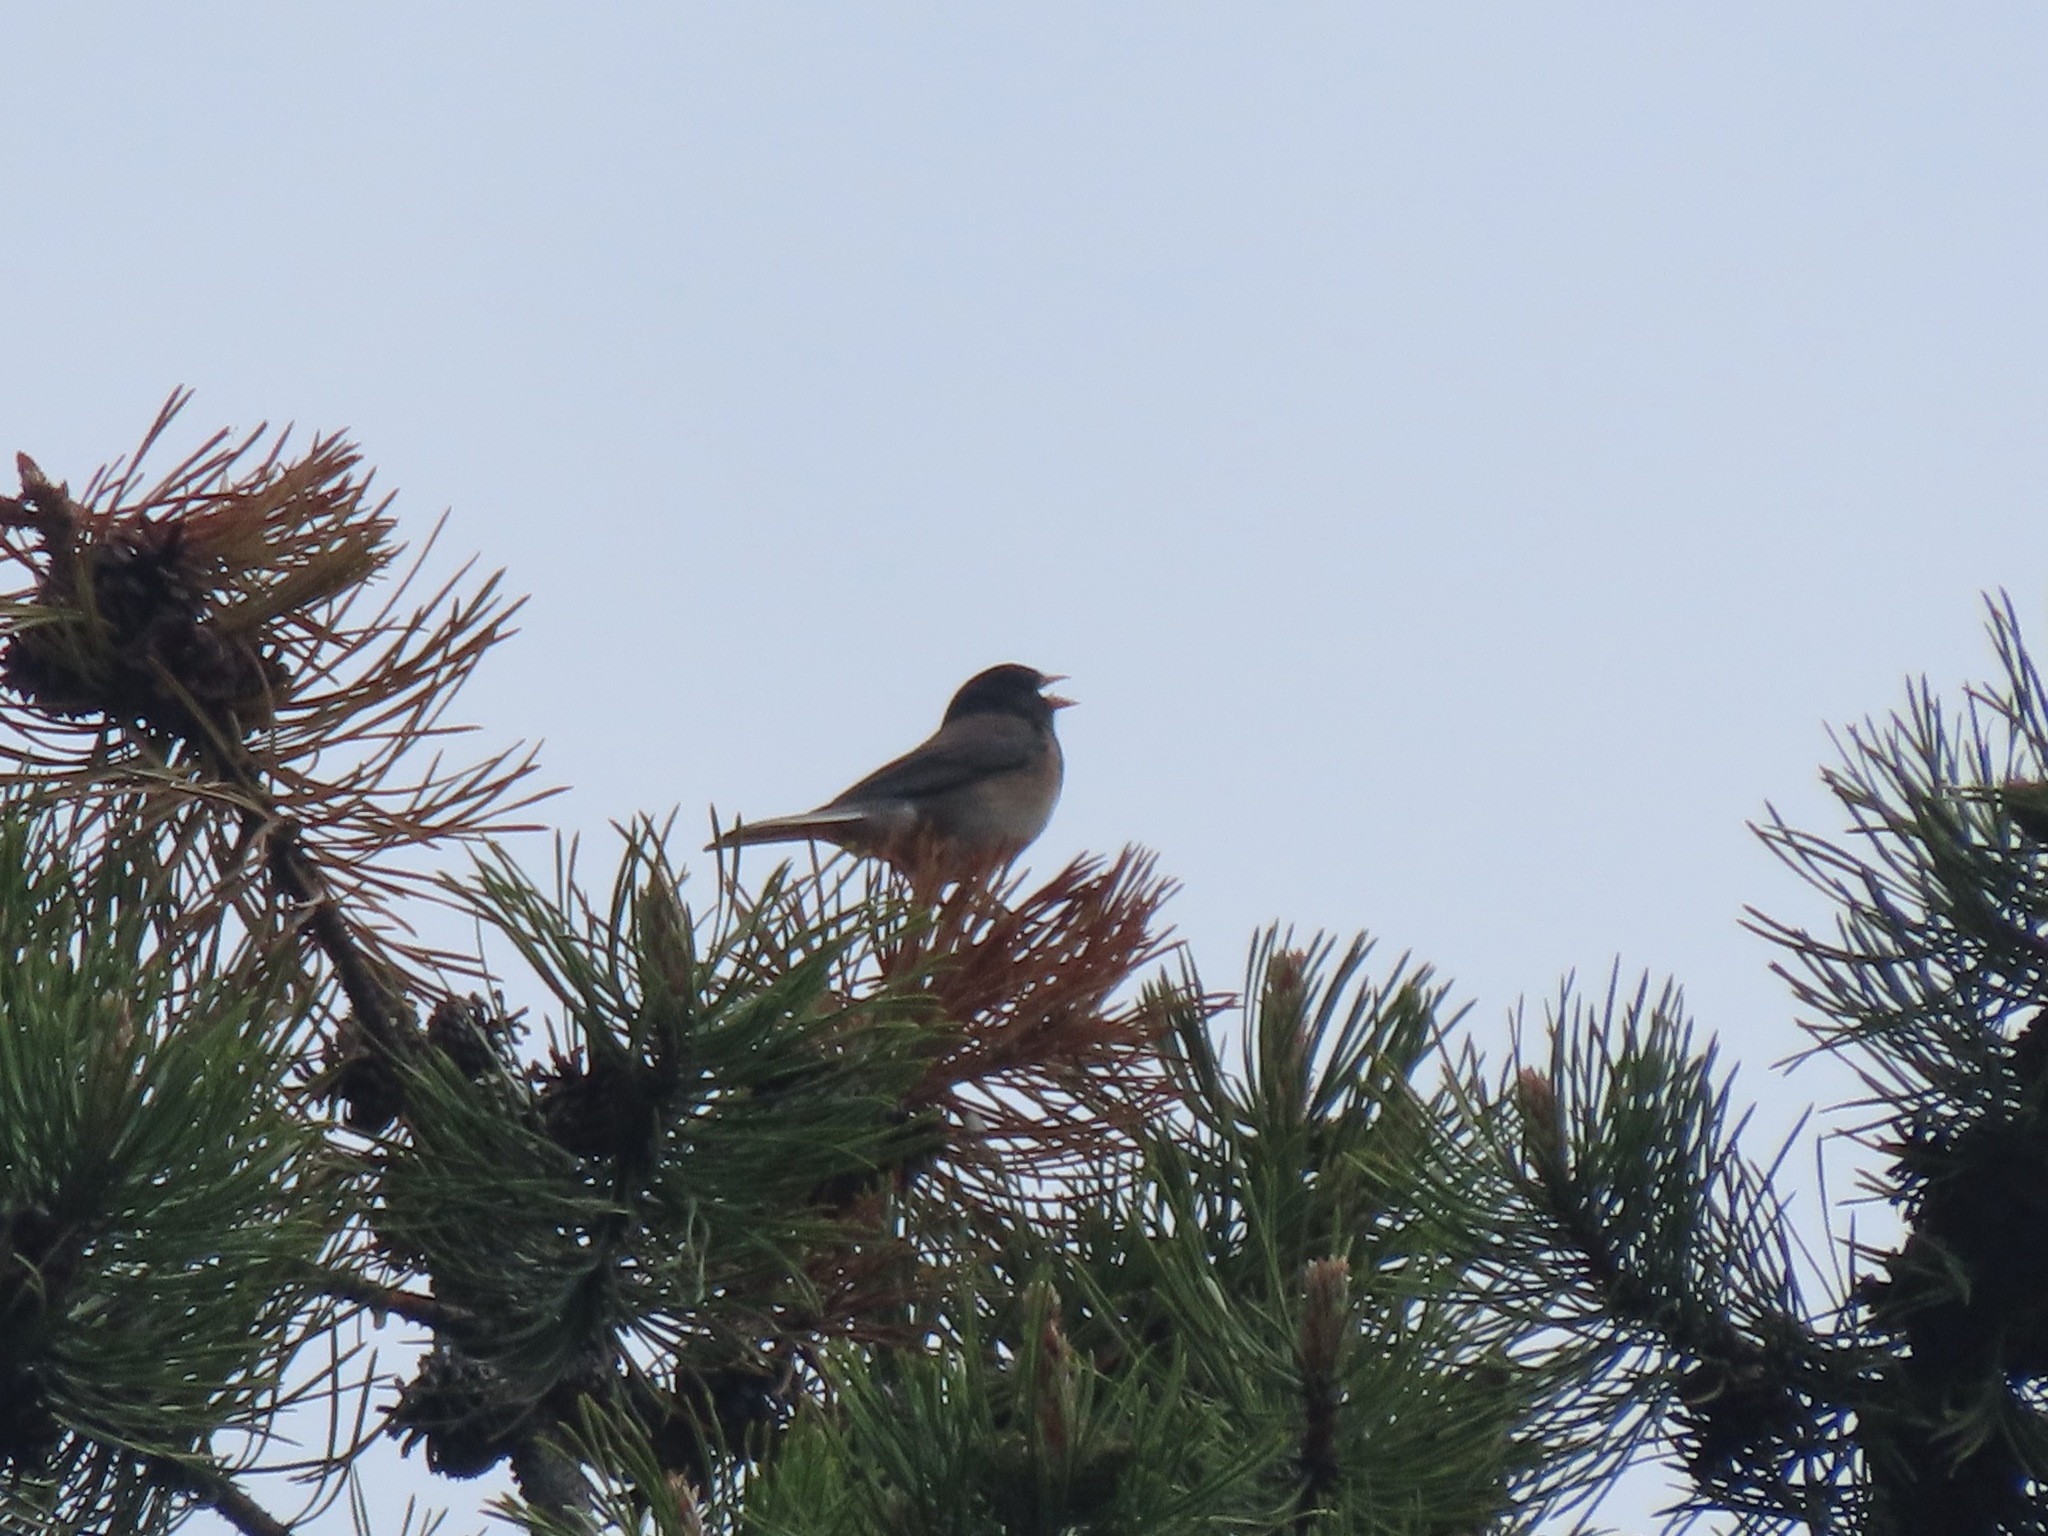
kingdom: Animalia
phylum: Chordata
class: Aves
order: Passeriformes
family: Passerellidae
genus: Junco
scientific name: Junco hyemalis
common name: Dark-eyed junco
